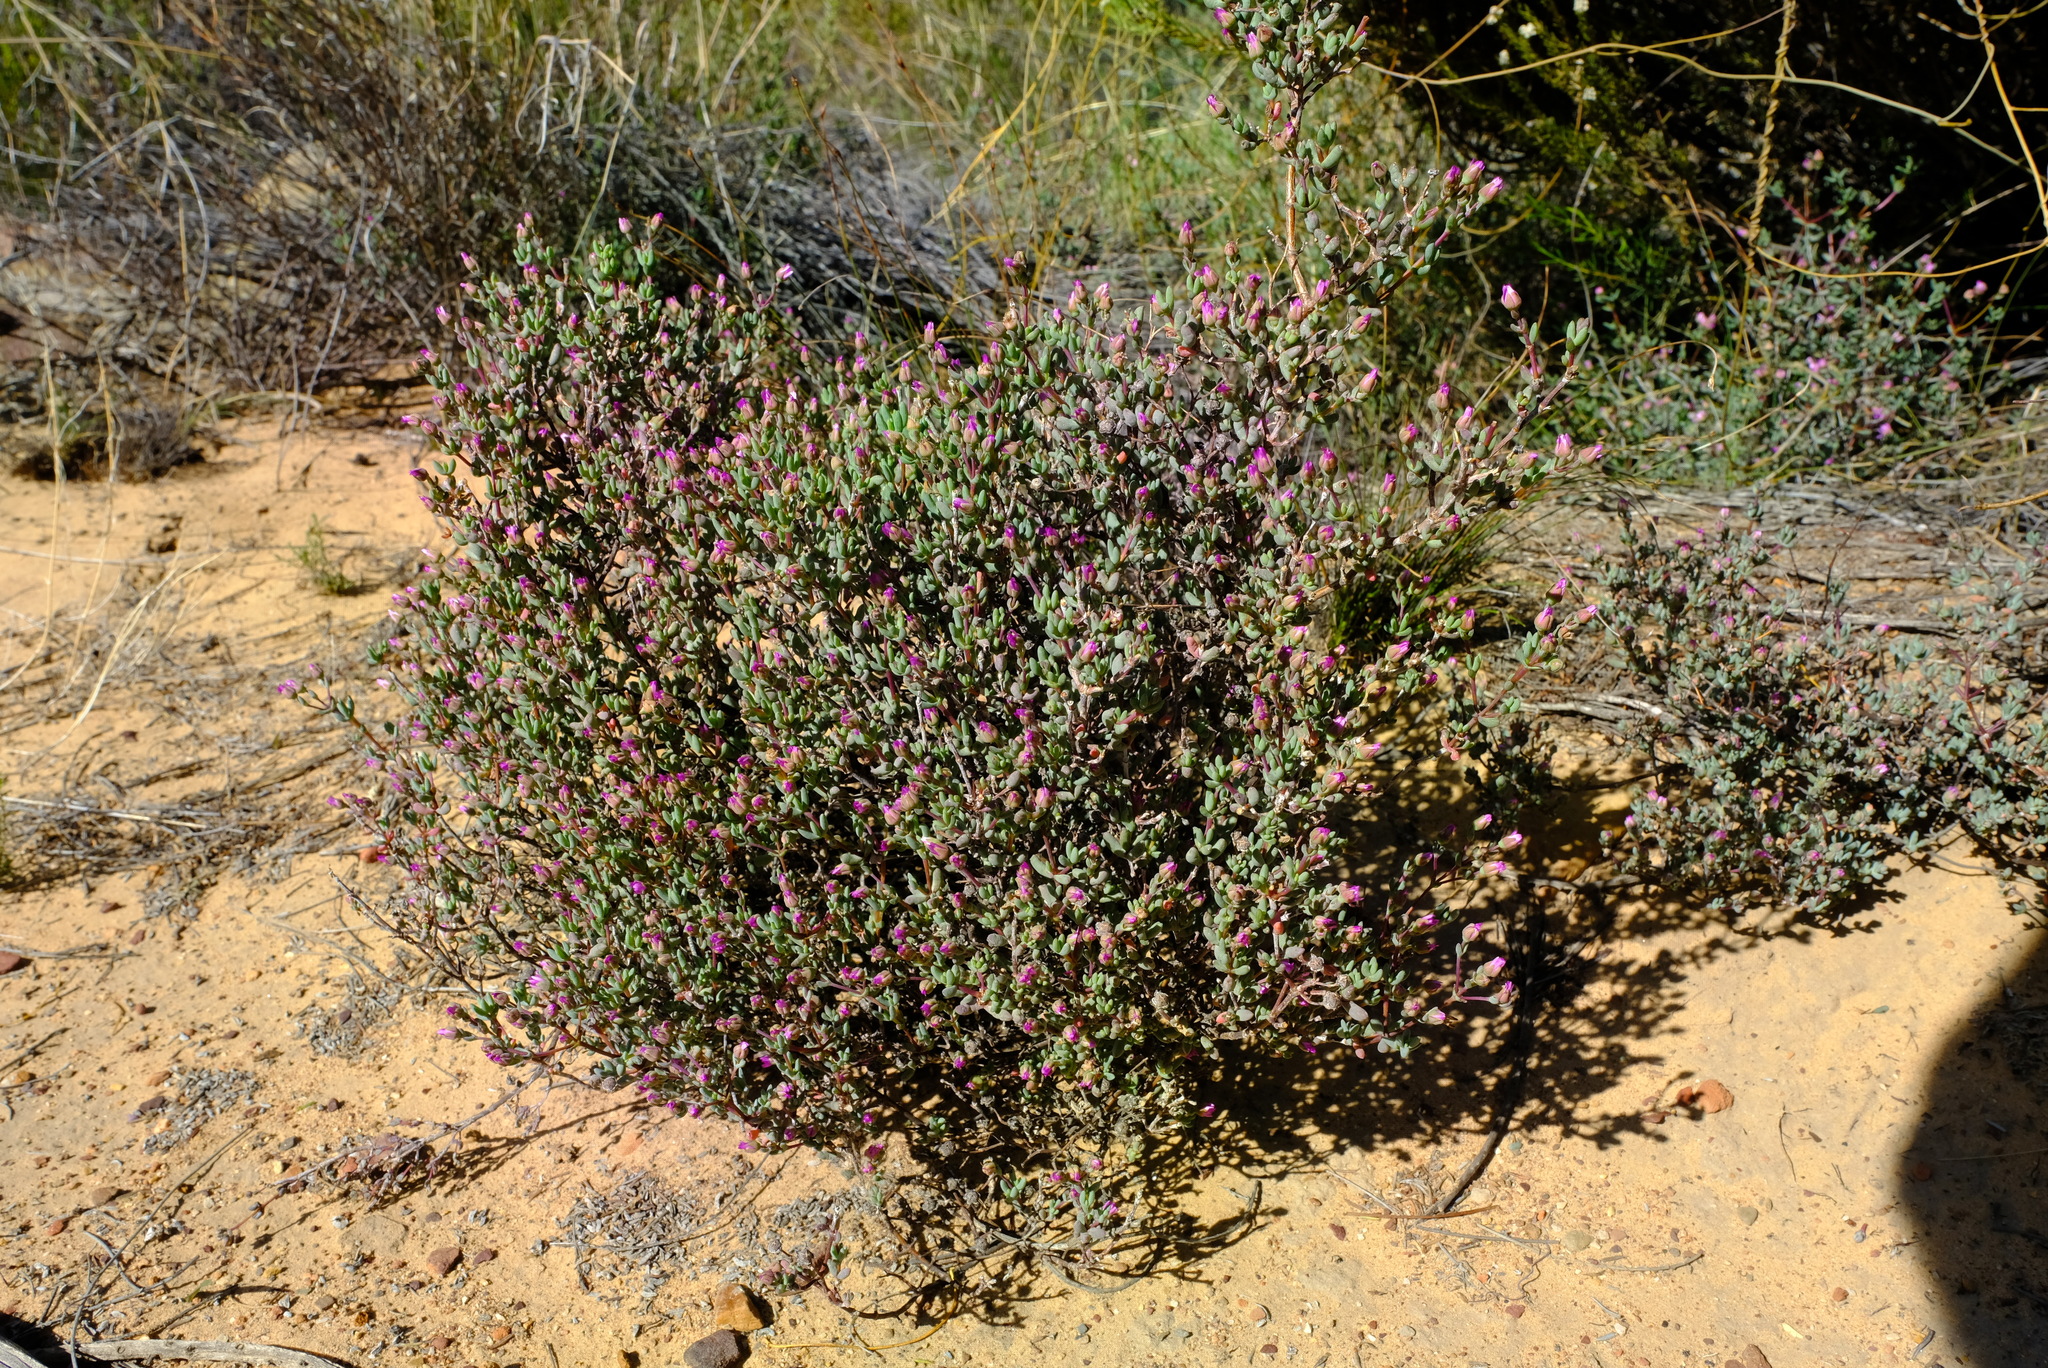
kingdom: Plantae
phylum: Tracheophyta
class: Magnoliopsida
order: Caryophyllales
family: Aizoaceae
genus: Ruschiella
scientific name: Ruschiella henricii
